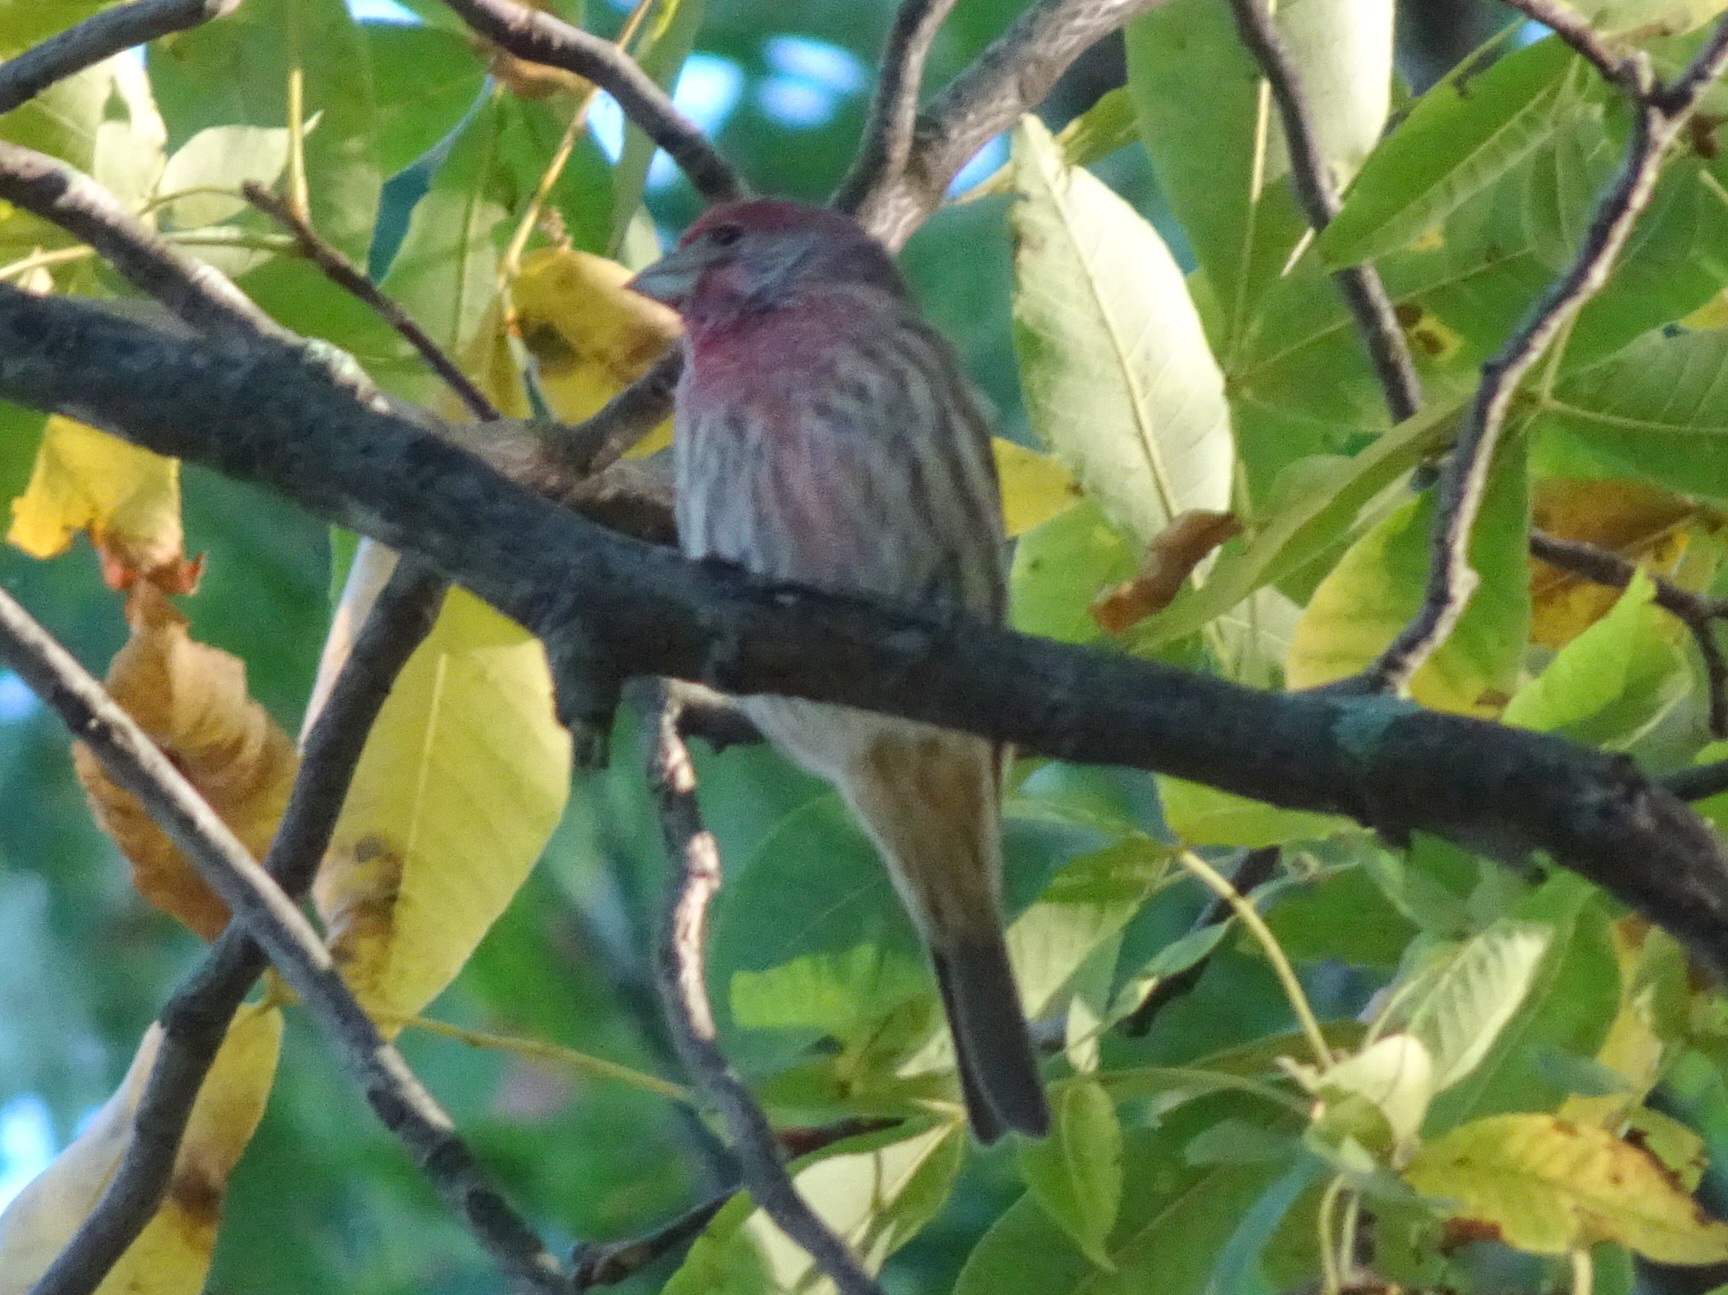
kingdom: Animalia
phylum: Chordata
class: Aves
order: Passeriformes
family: Fringillidae
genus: Haemorhous
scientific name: Haemorhous mexicanus
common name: House finch
